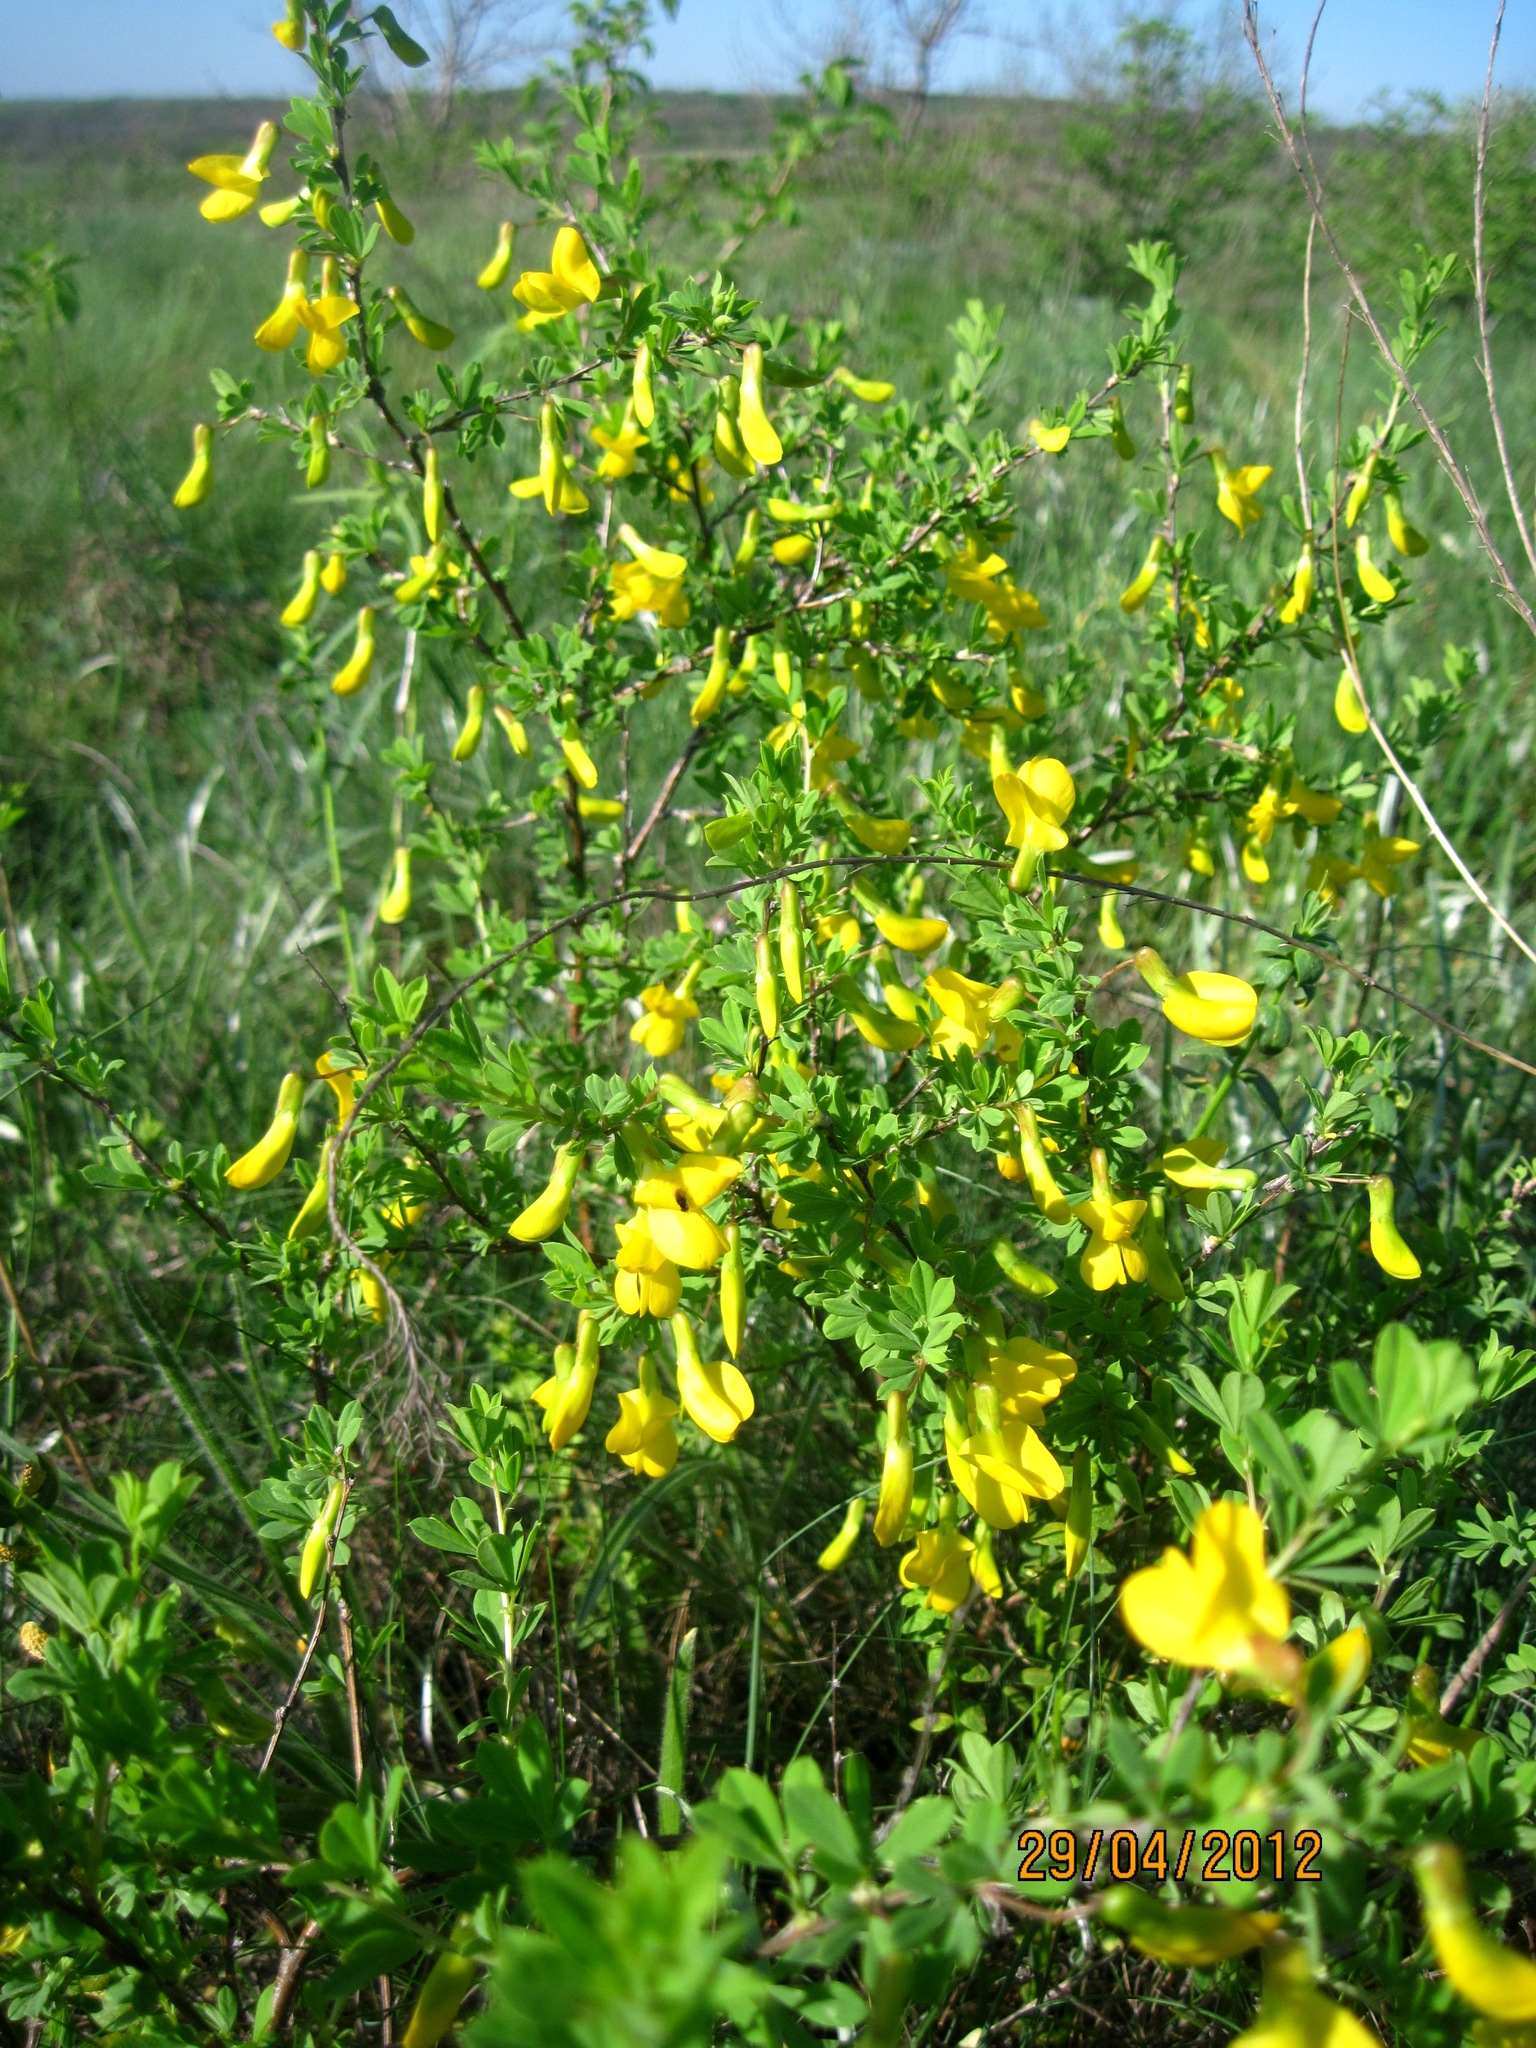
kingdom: Plantae
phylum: Tracheophyta
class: Magnoliopsida
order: Fabales
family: Fabaceae
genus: Caragana
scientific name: Caragana frutex
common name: Russian peashrub
